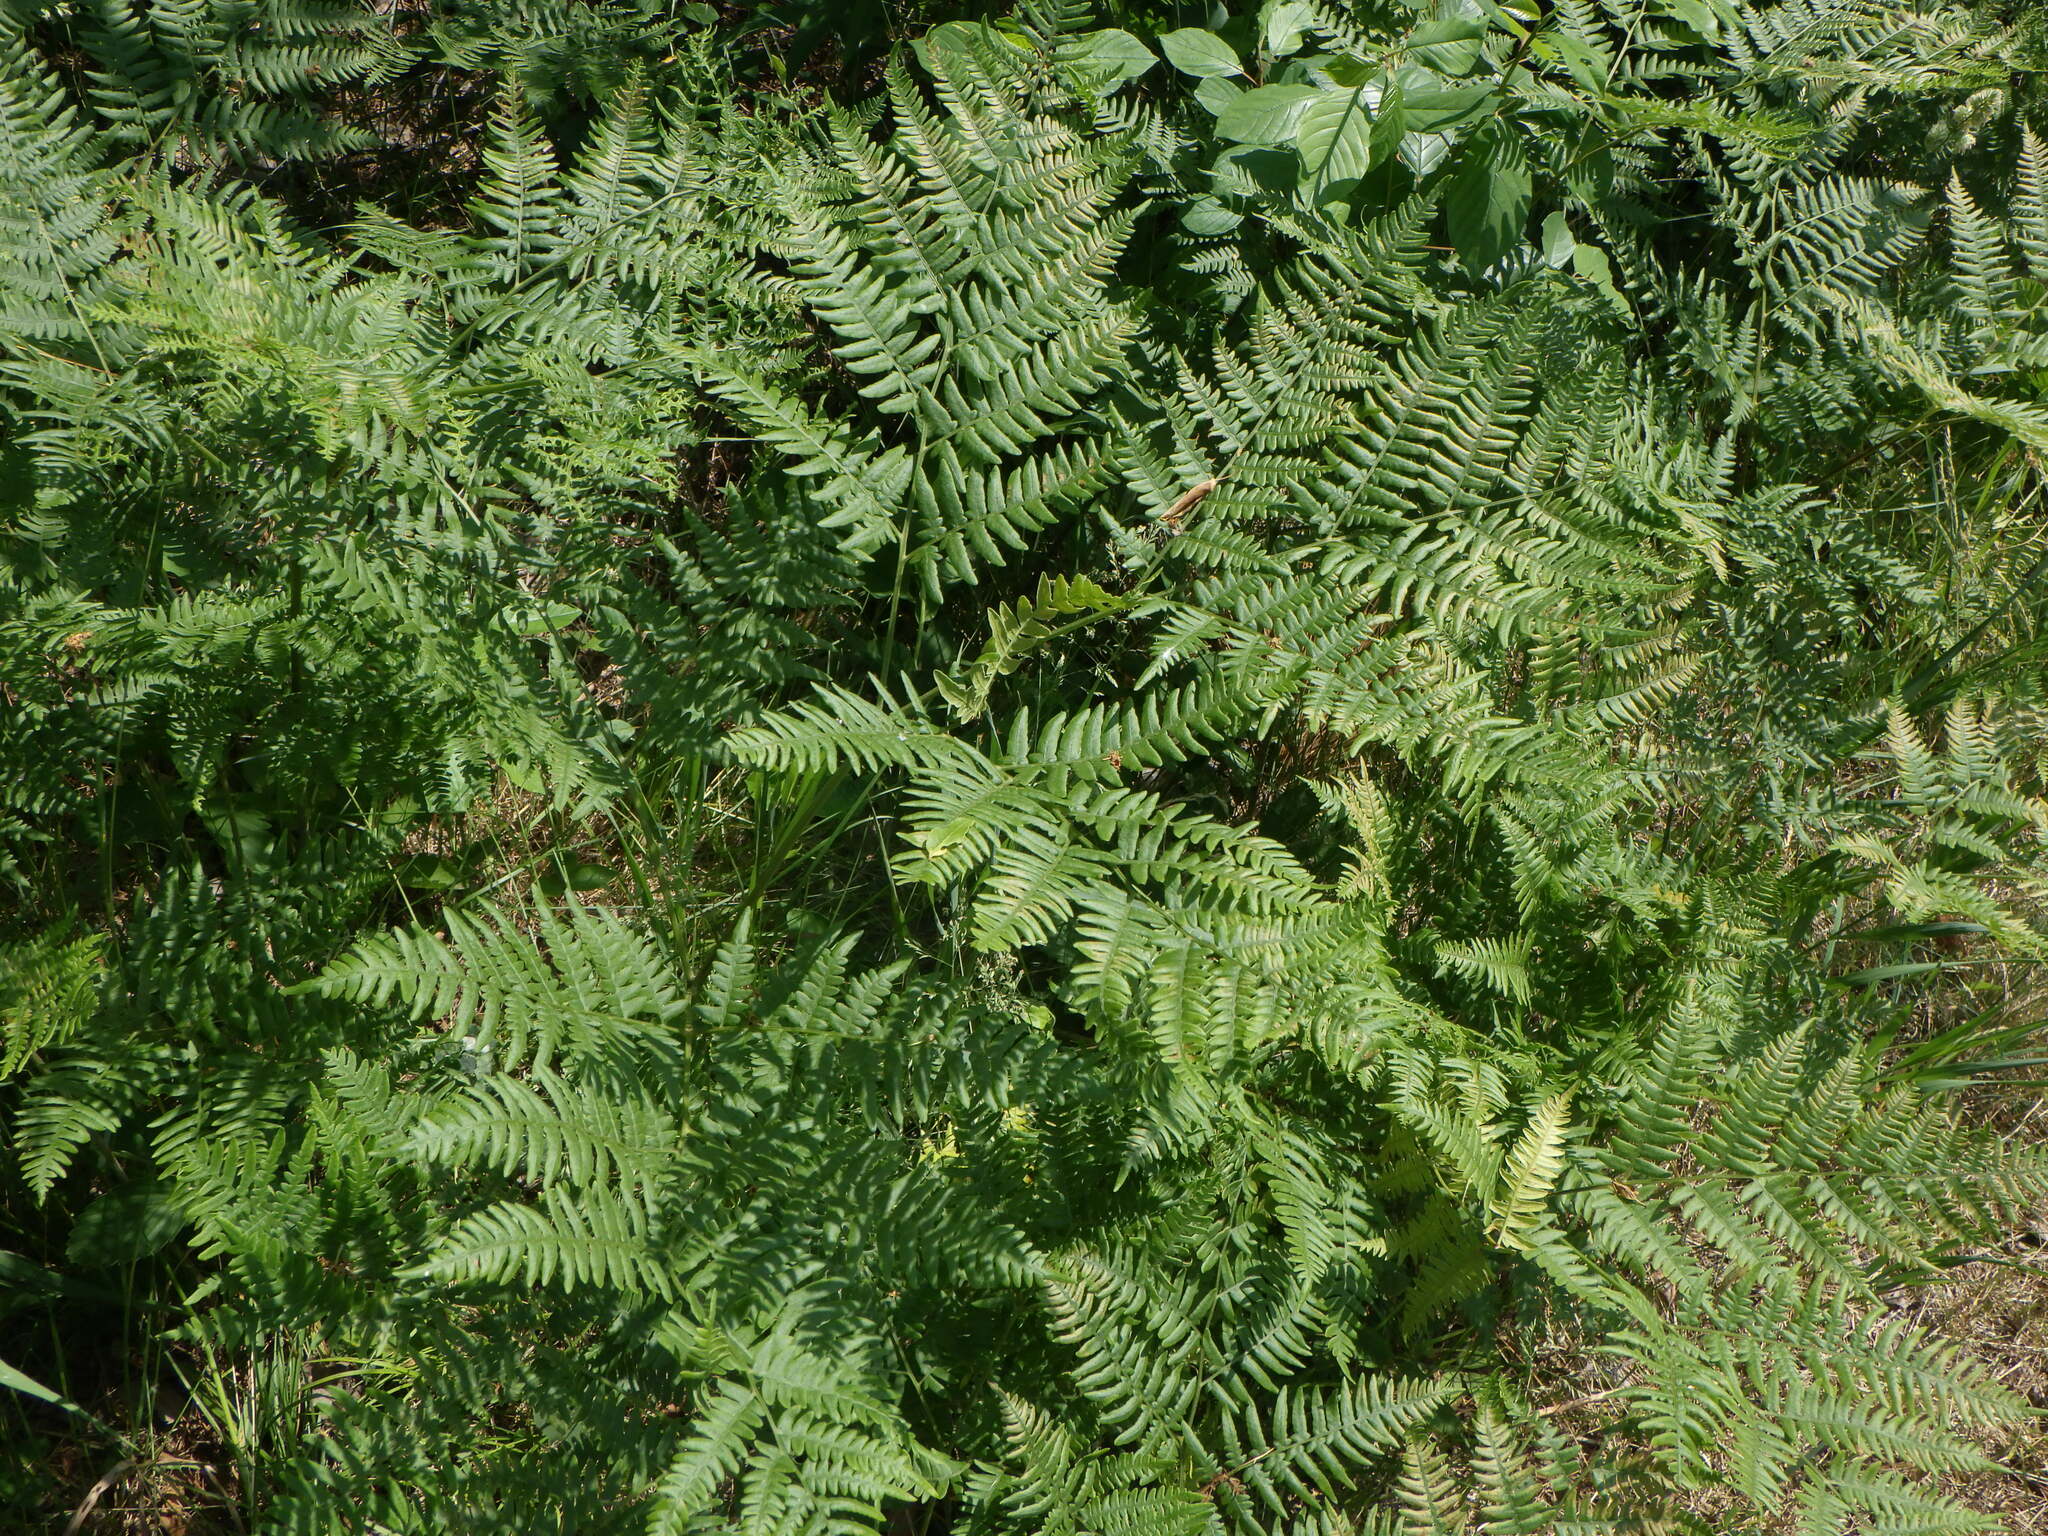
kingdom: Plantae
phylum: Tracheophyta
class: Polypodiopsida
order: Polypodiales
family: Dennstaedtiaceae
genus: Pteridium
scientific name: Pteridium aquilinum
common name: Bracken
